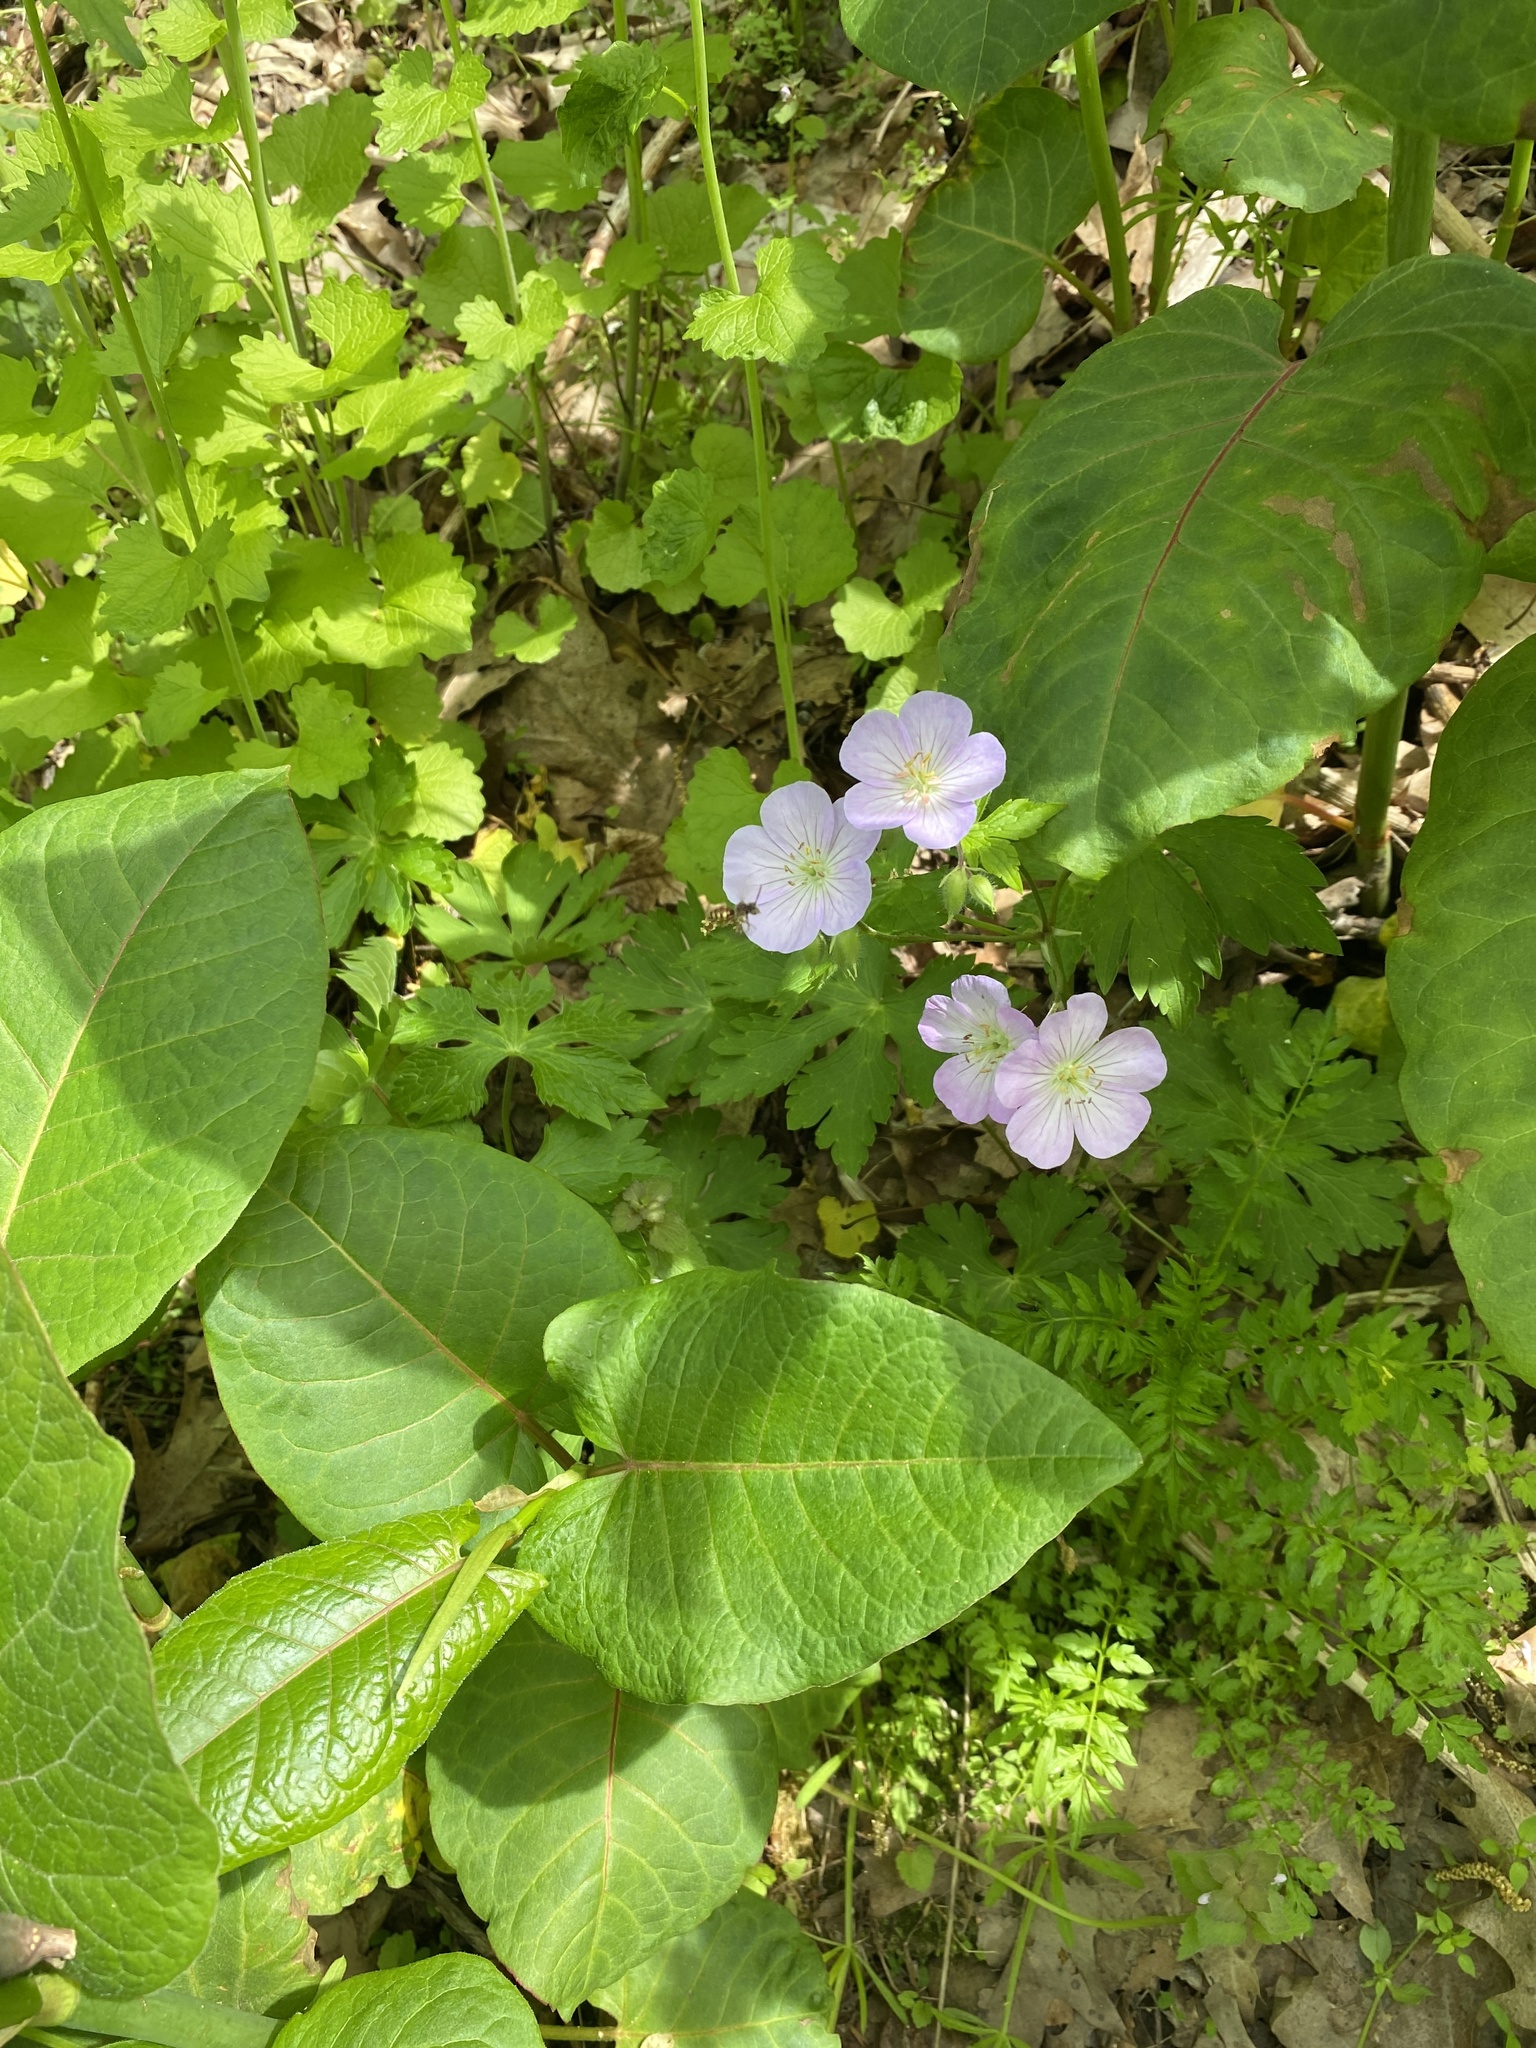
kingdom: Plantae
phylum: Tracheophyta
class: Magnoliopsida
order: Geraniales
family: Geraniaceae
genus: Geranium
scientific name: Geranium maculatum
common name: Spotted geranium
